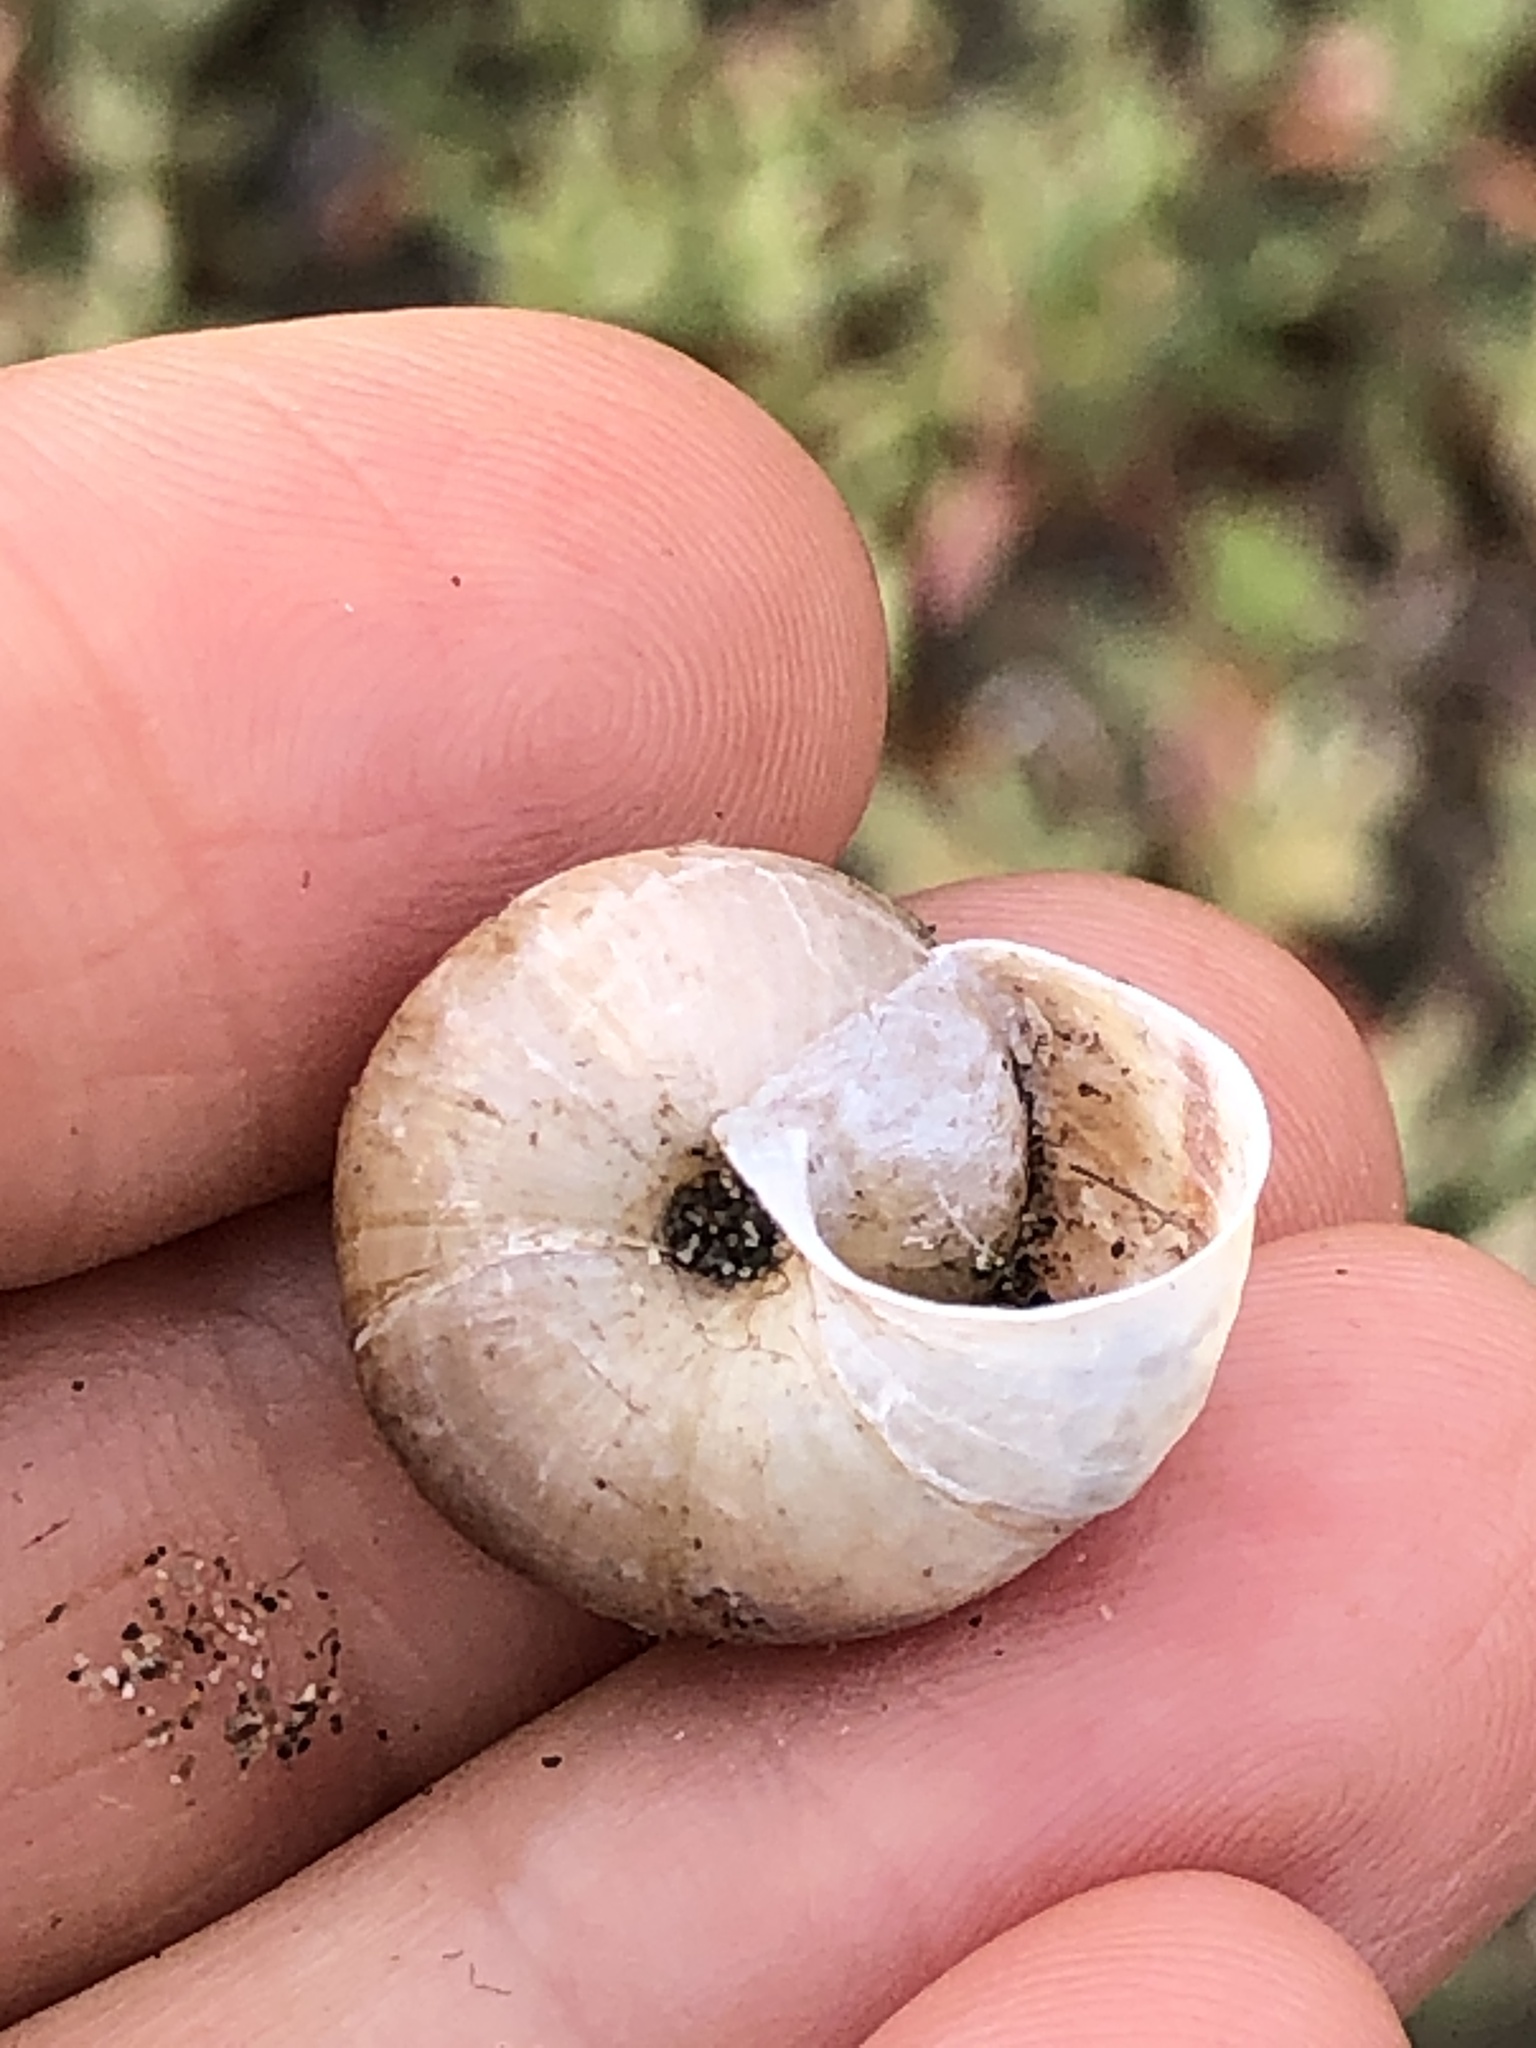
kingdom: Animalia
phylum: Mollusca
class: Gastropoda
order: Stylommatophora
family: Xanthonychidae
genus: Helminthoglypta
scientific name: Helminthoglypta umbilicata
